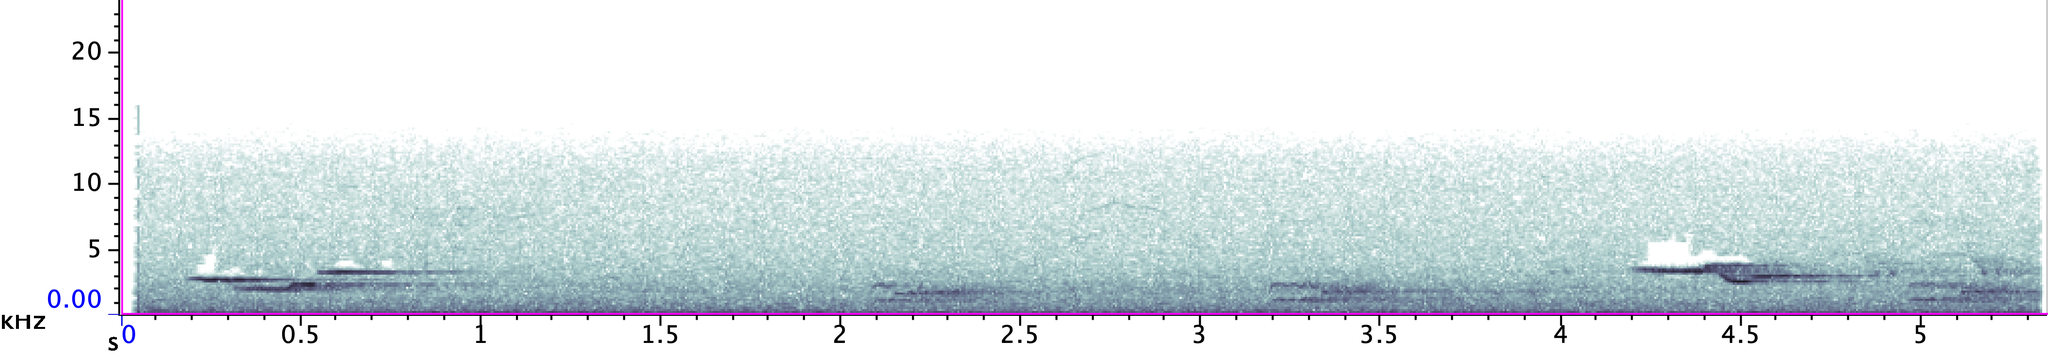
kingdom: Animalia
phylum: Chordata
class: Aves
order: Passeriformes
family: Turdidae
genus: Hylocichla
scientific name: Hylocichla mustelina
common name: Wood thrush
